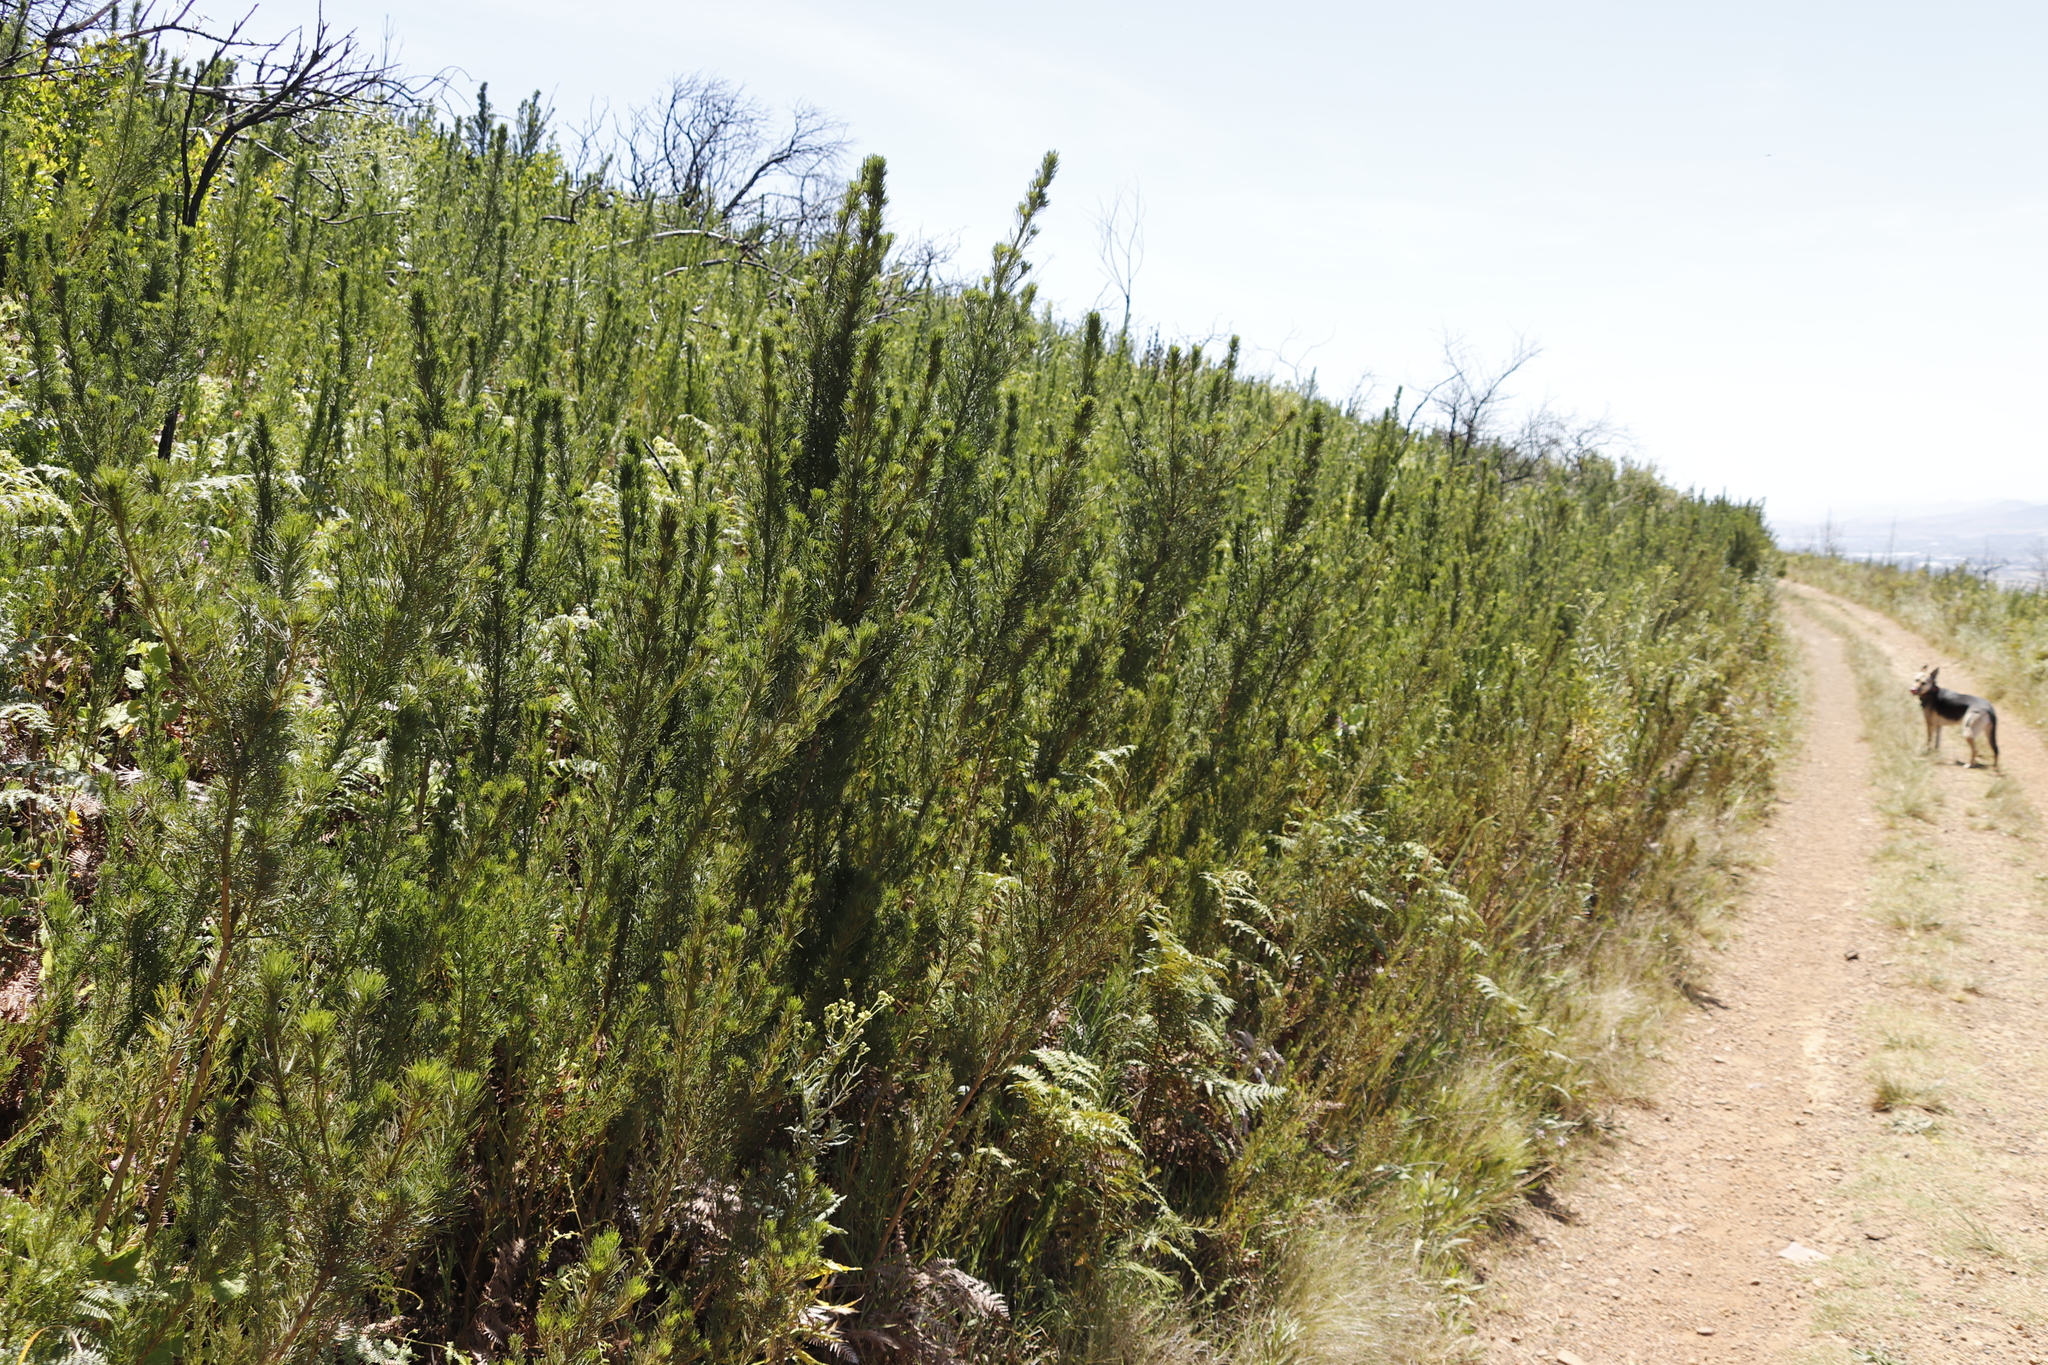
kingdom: Plantae
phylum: Tracheophyta
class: Magnoliopsida
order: Fabales
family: Fabaceae
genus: Psoralea
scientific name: Psoralea pinnata
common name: African scurfpea
